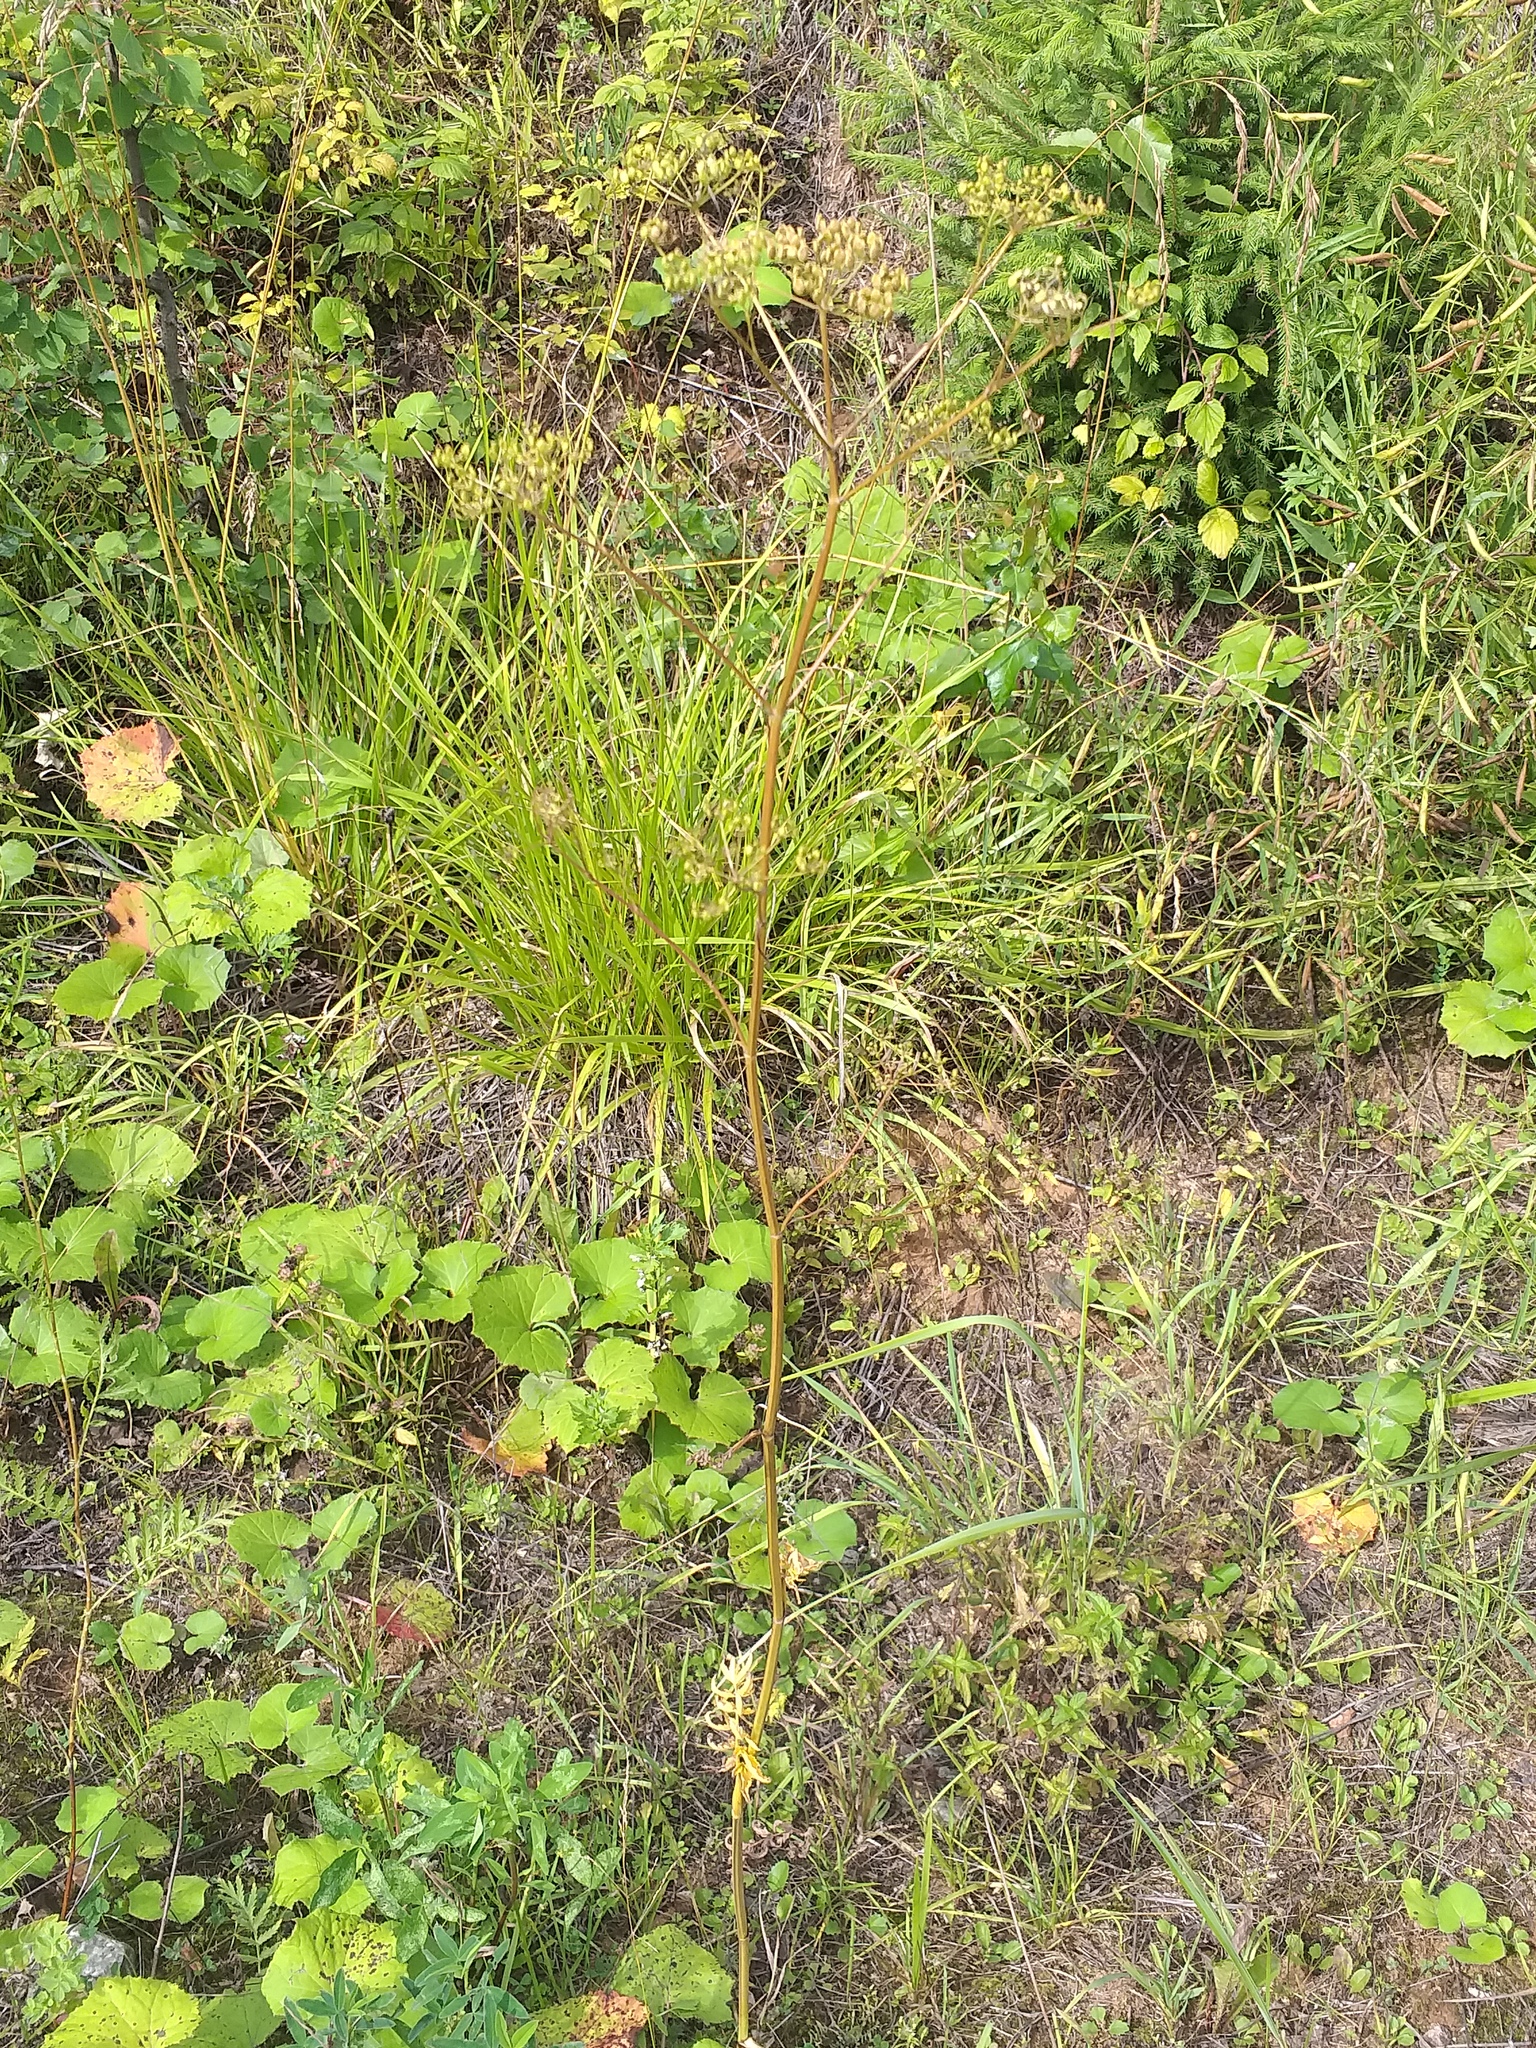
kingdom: Plantae
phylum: Tracheophyta
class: Magnoliopsida
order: Apiales
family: Apiaceae
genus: Pastinaca
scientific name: Pastinaca sativa
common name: Wild parsnip
